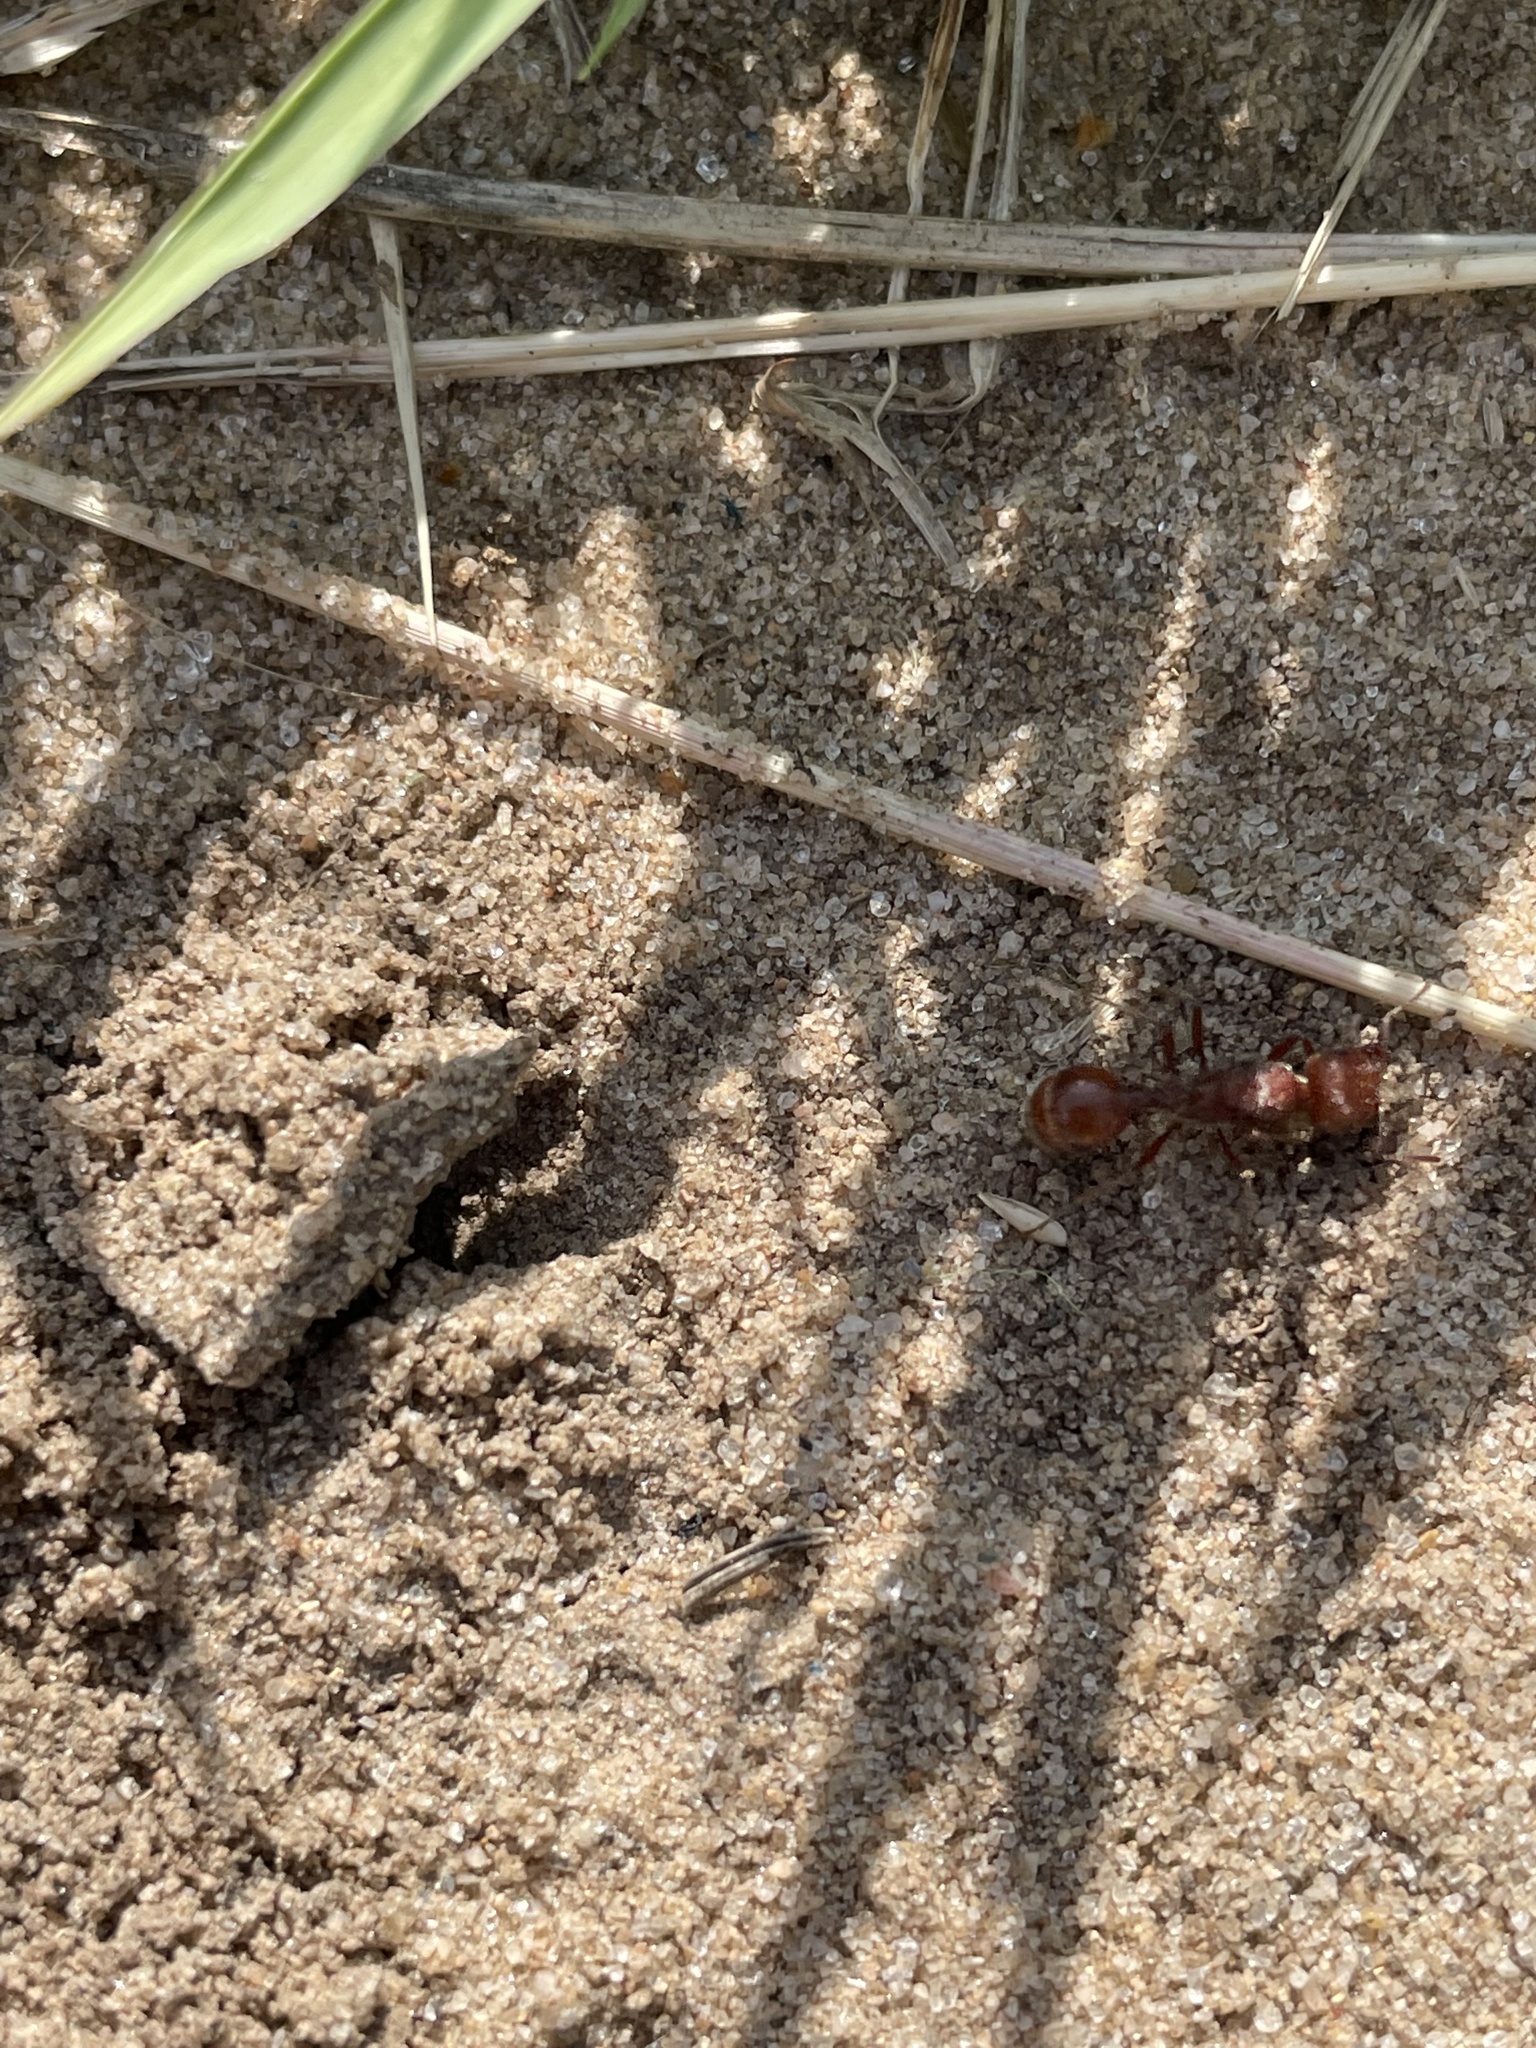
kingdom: Animalia
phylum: Arthropoda
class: Insecta
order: Hymenoptera
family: Formicidae
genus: Pogonomyrmex
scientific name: Pogonomyrmex comanche
